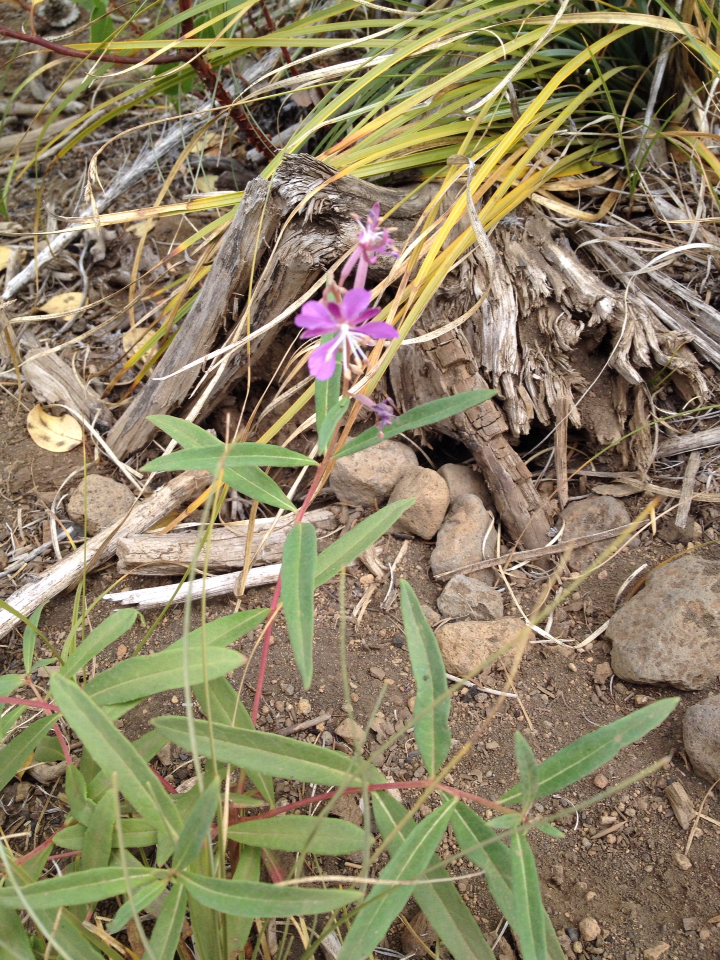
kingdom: Plantae
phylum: Tracheophyta
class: Magnoliopsida
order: Myrtales
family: Onagraceae
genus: Chamaenerion
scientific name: Chamaenerion angustifolium
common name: Fireweed
